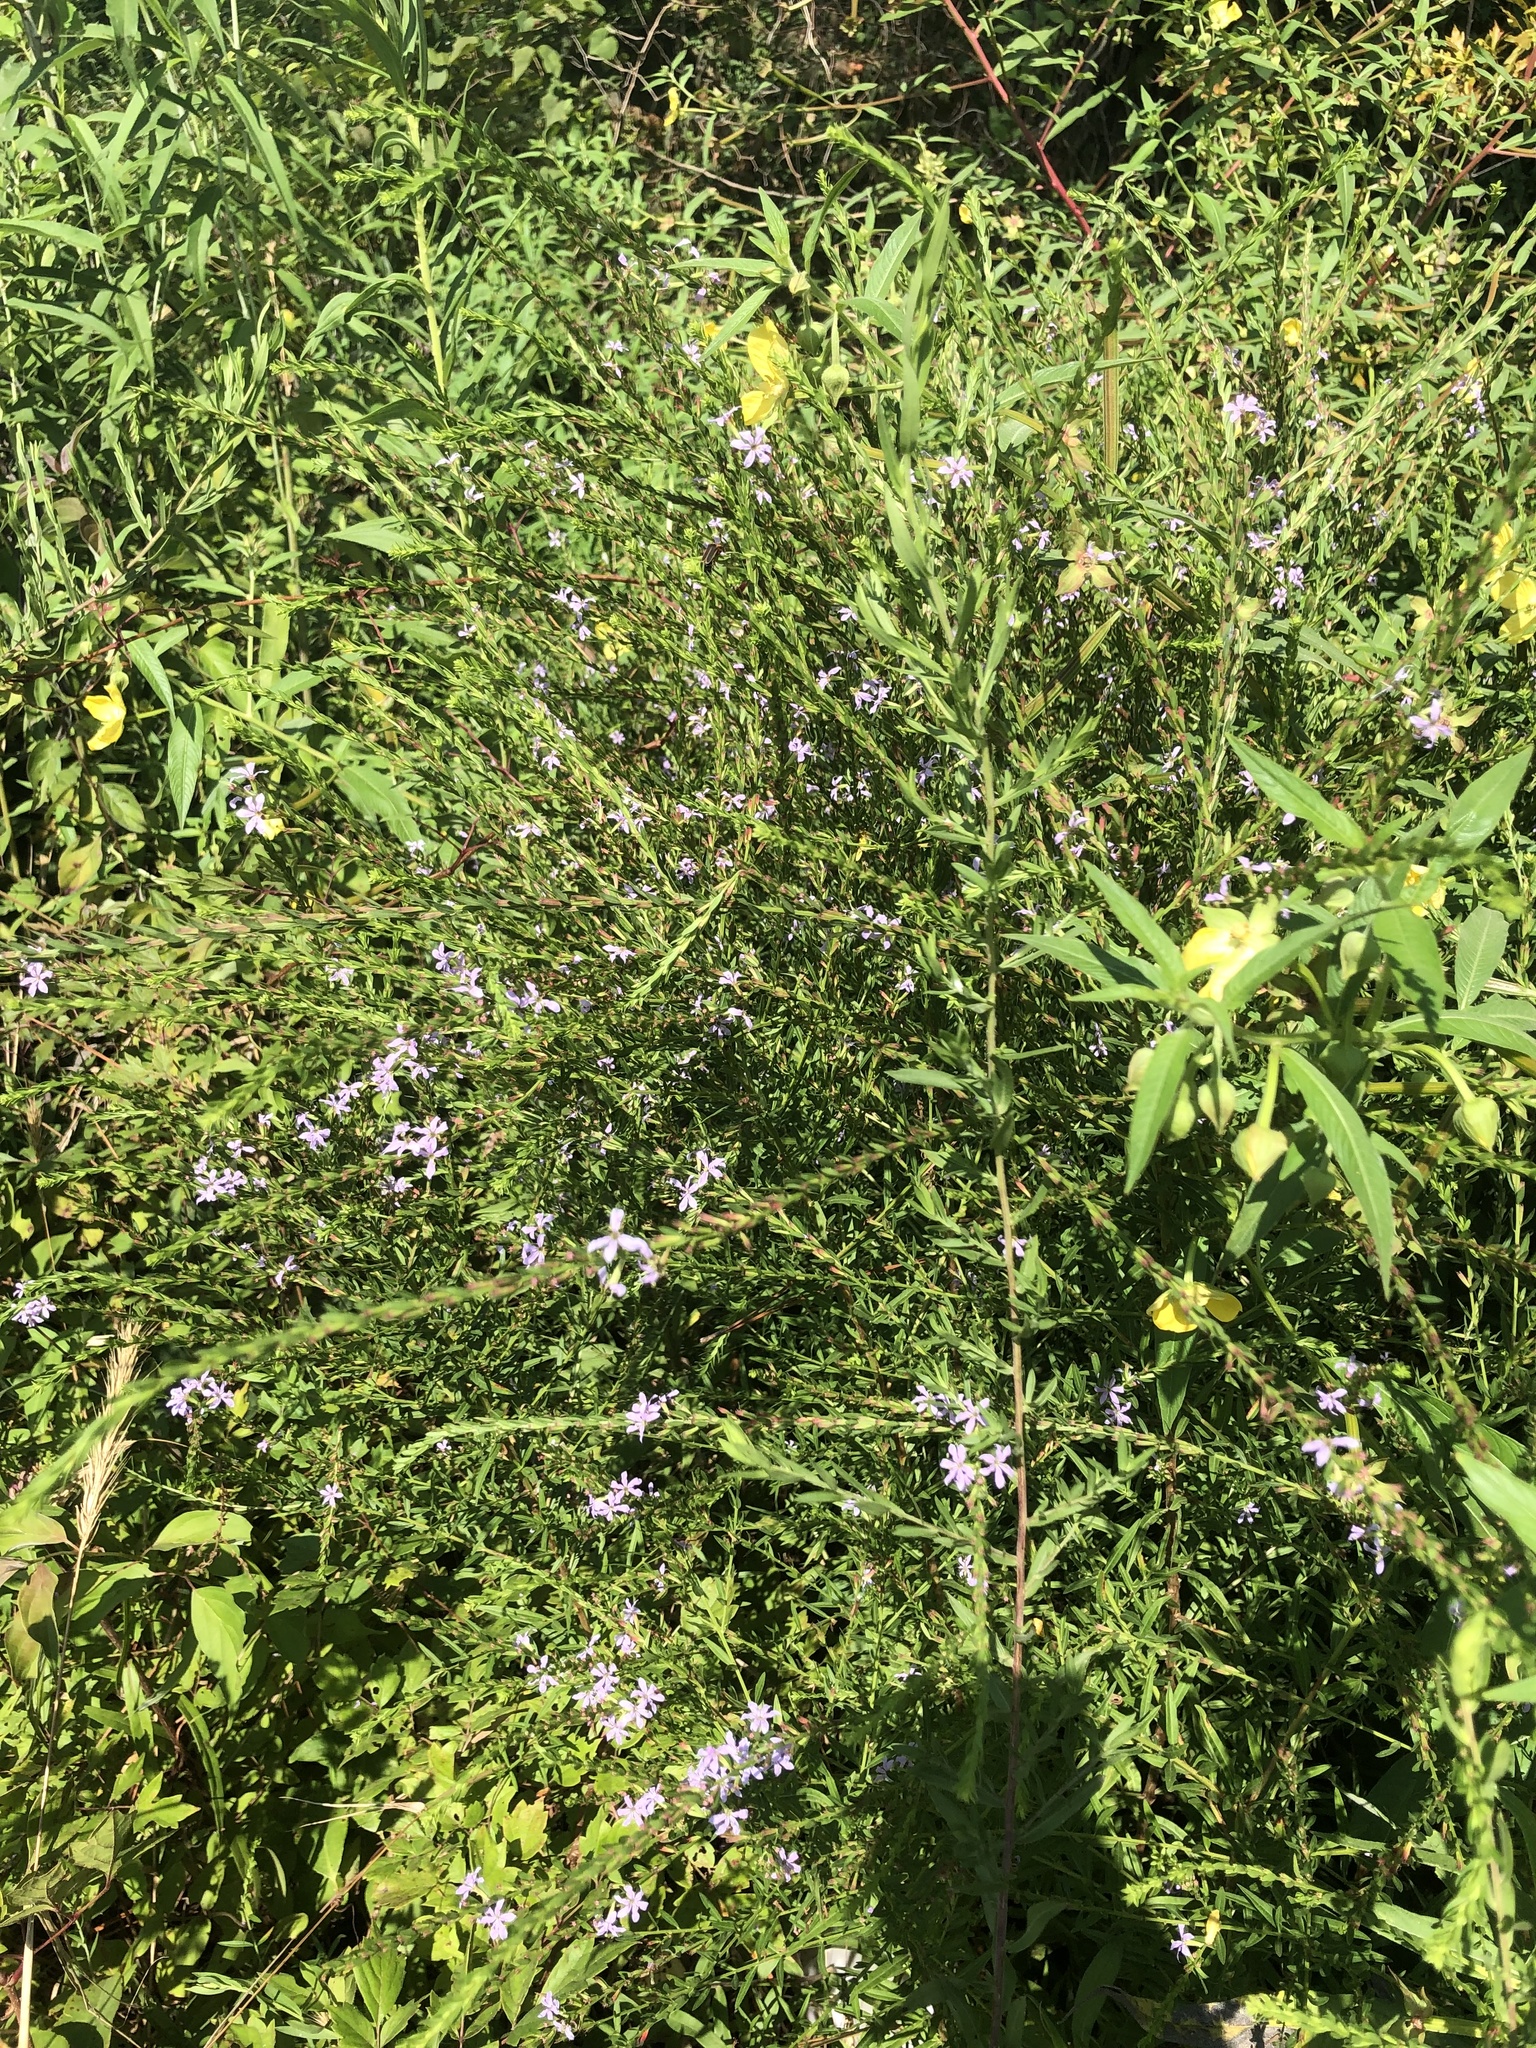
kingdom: Plantae
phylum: Tracheophyta
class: Magnoliopsida
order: Myrtales
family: Lythraceae
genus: Lythrum
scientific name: Lythrum alatum
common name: Winged loosestrife
